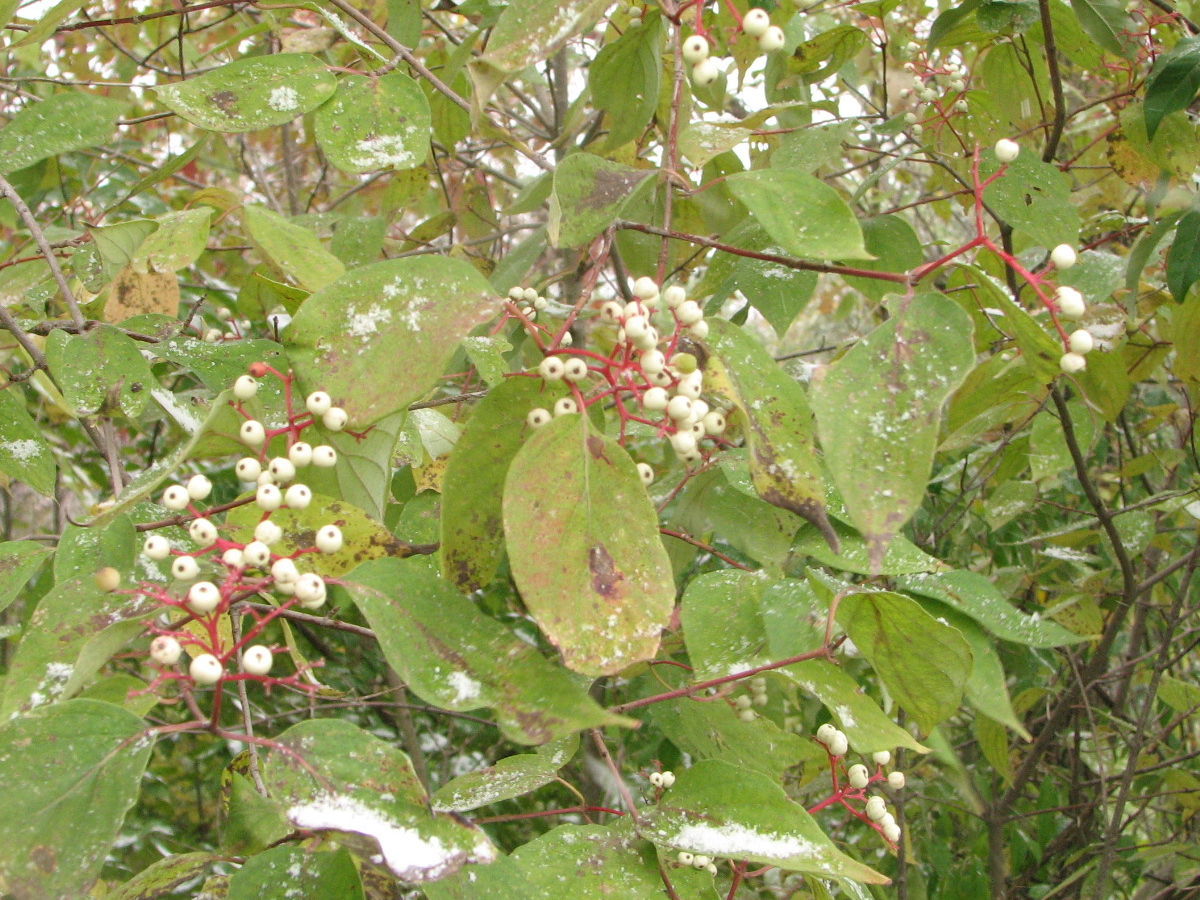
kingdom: Plantae
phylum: Tracheophyta
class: Magnoliopsida
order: Cornales
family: Cornaceae
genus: Cornus
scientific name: Cornus racemosa
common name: Panicled dogwood
